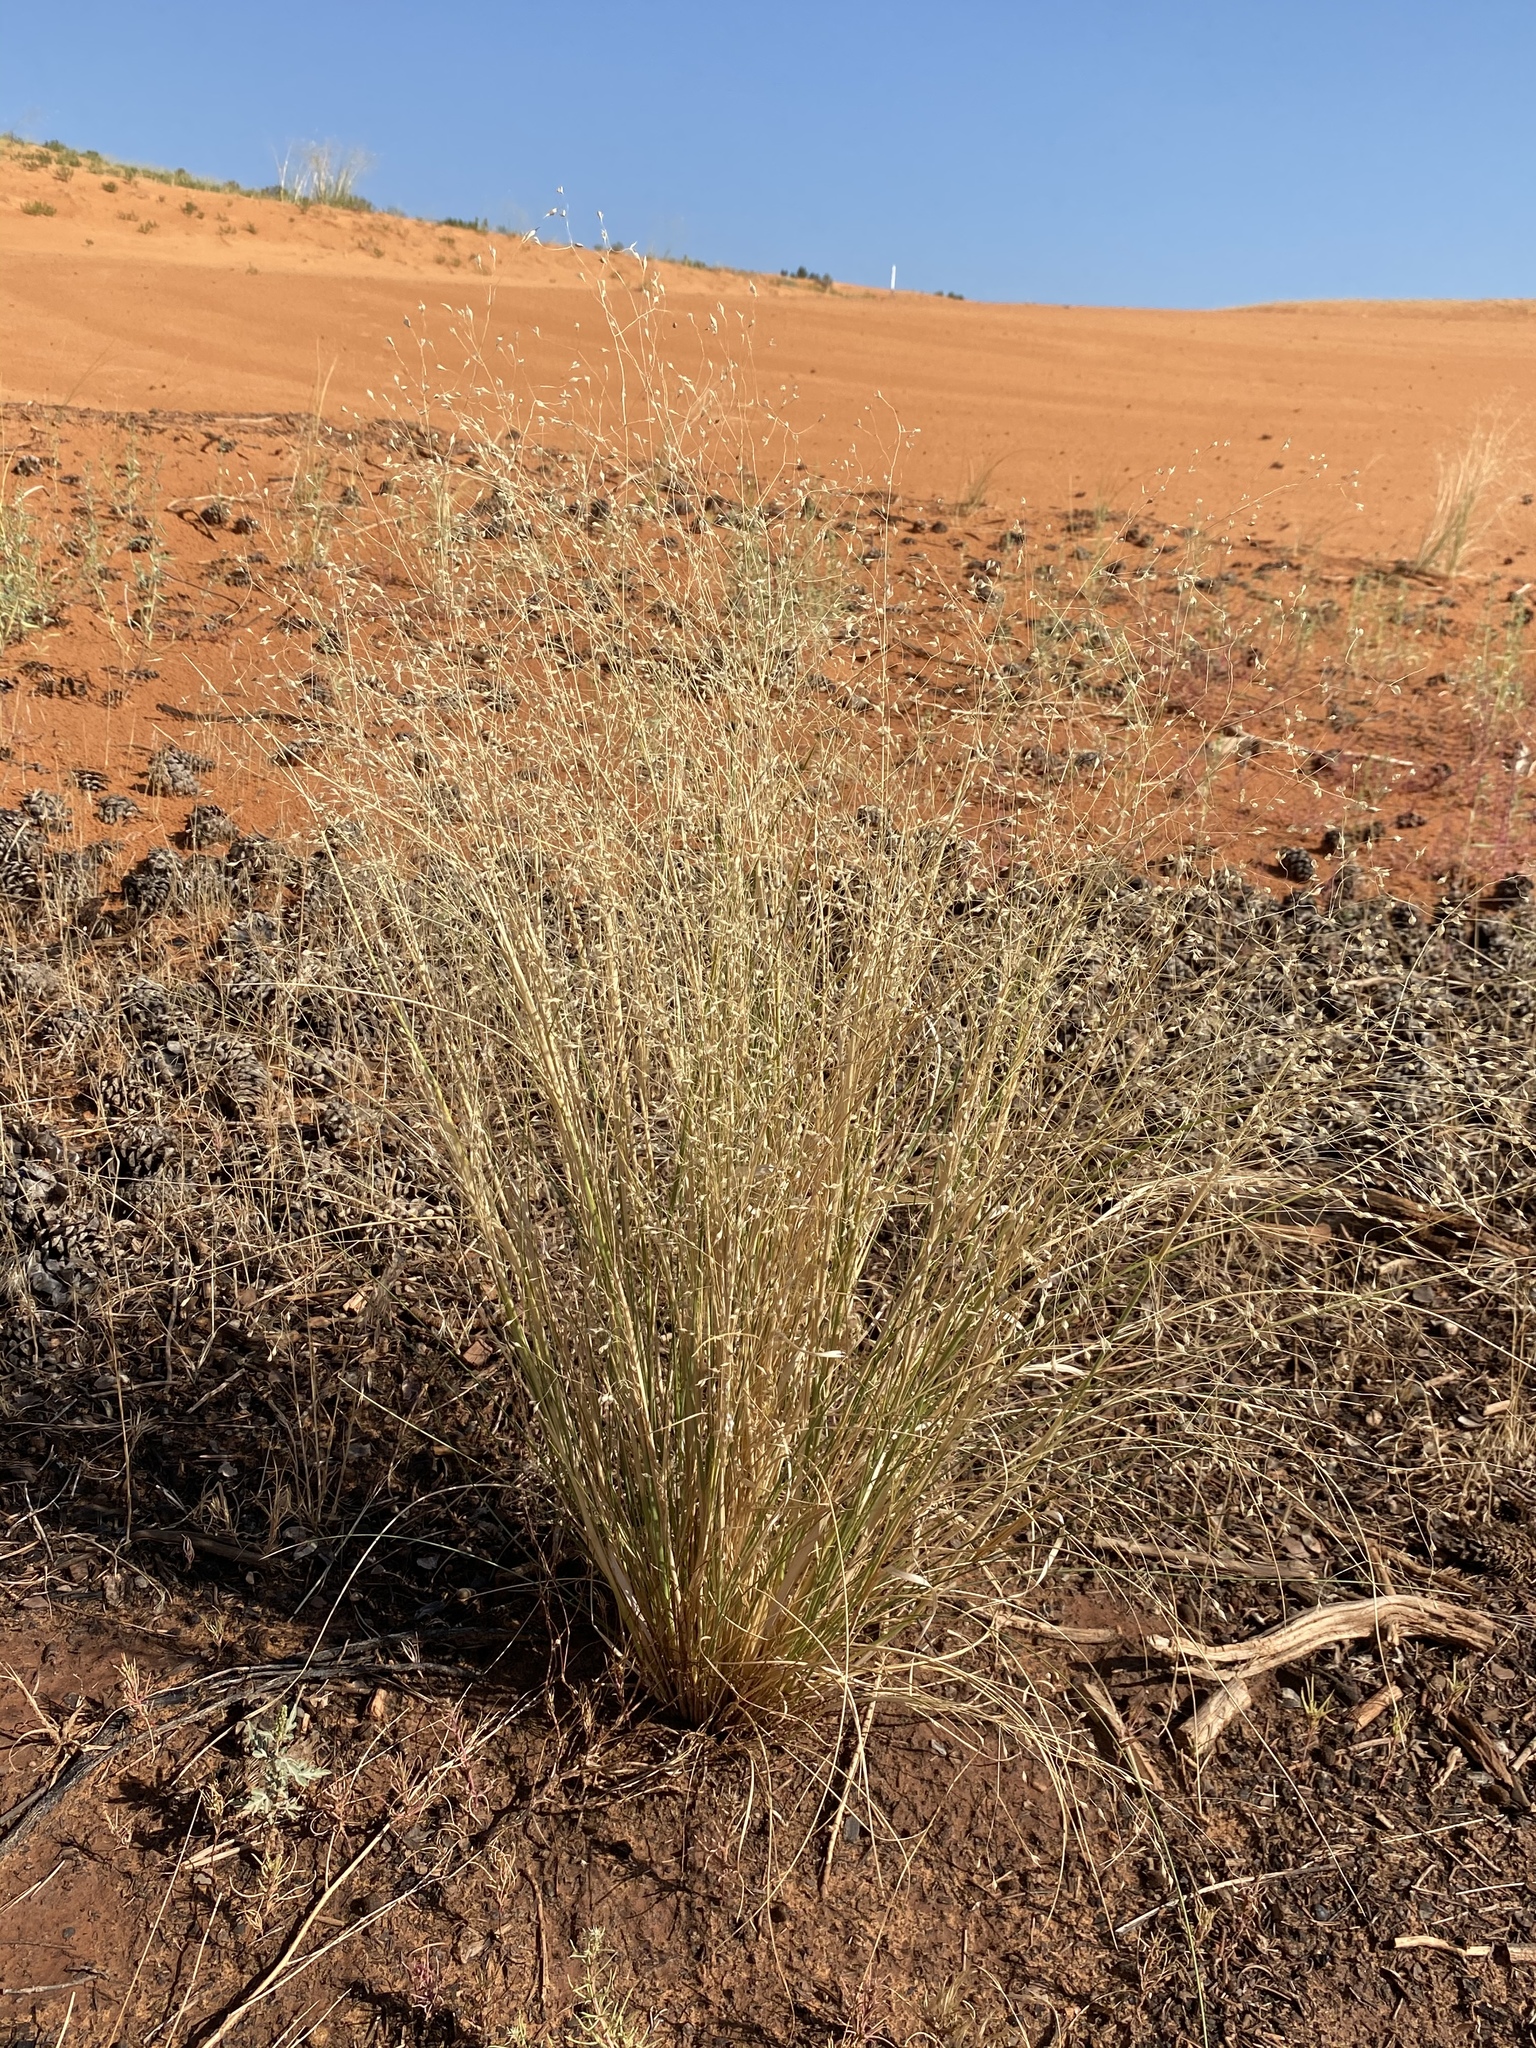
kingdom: Plantae
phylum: Tracheophyta
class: Liliopsida
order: Poales
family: Poaceae
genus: Eriocoma
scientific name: Eriocoma hymenoides
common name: Indian mountain ricegrass
